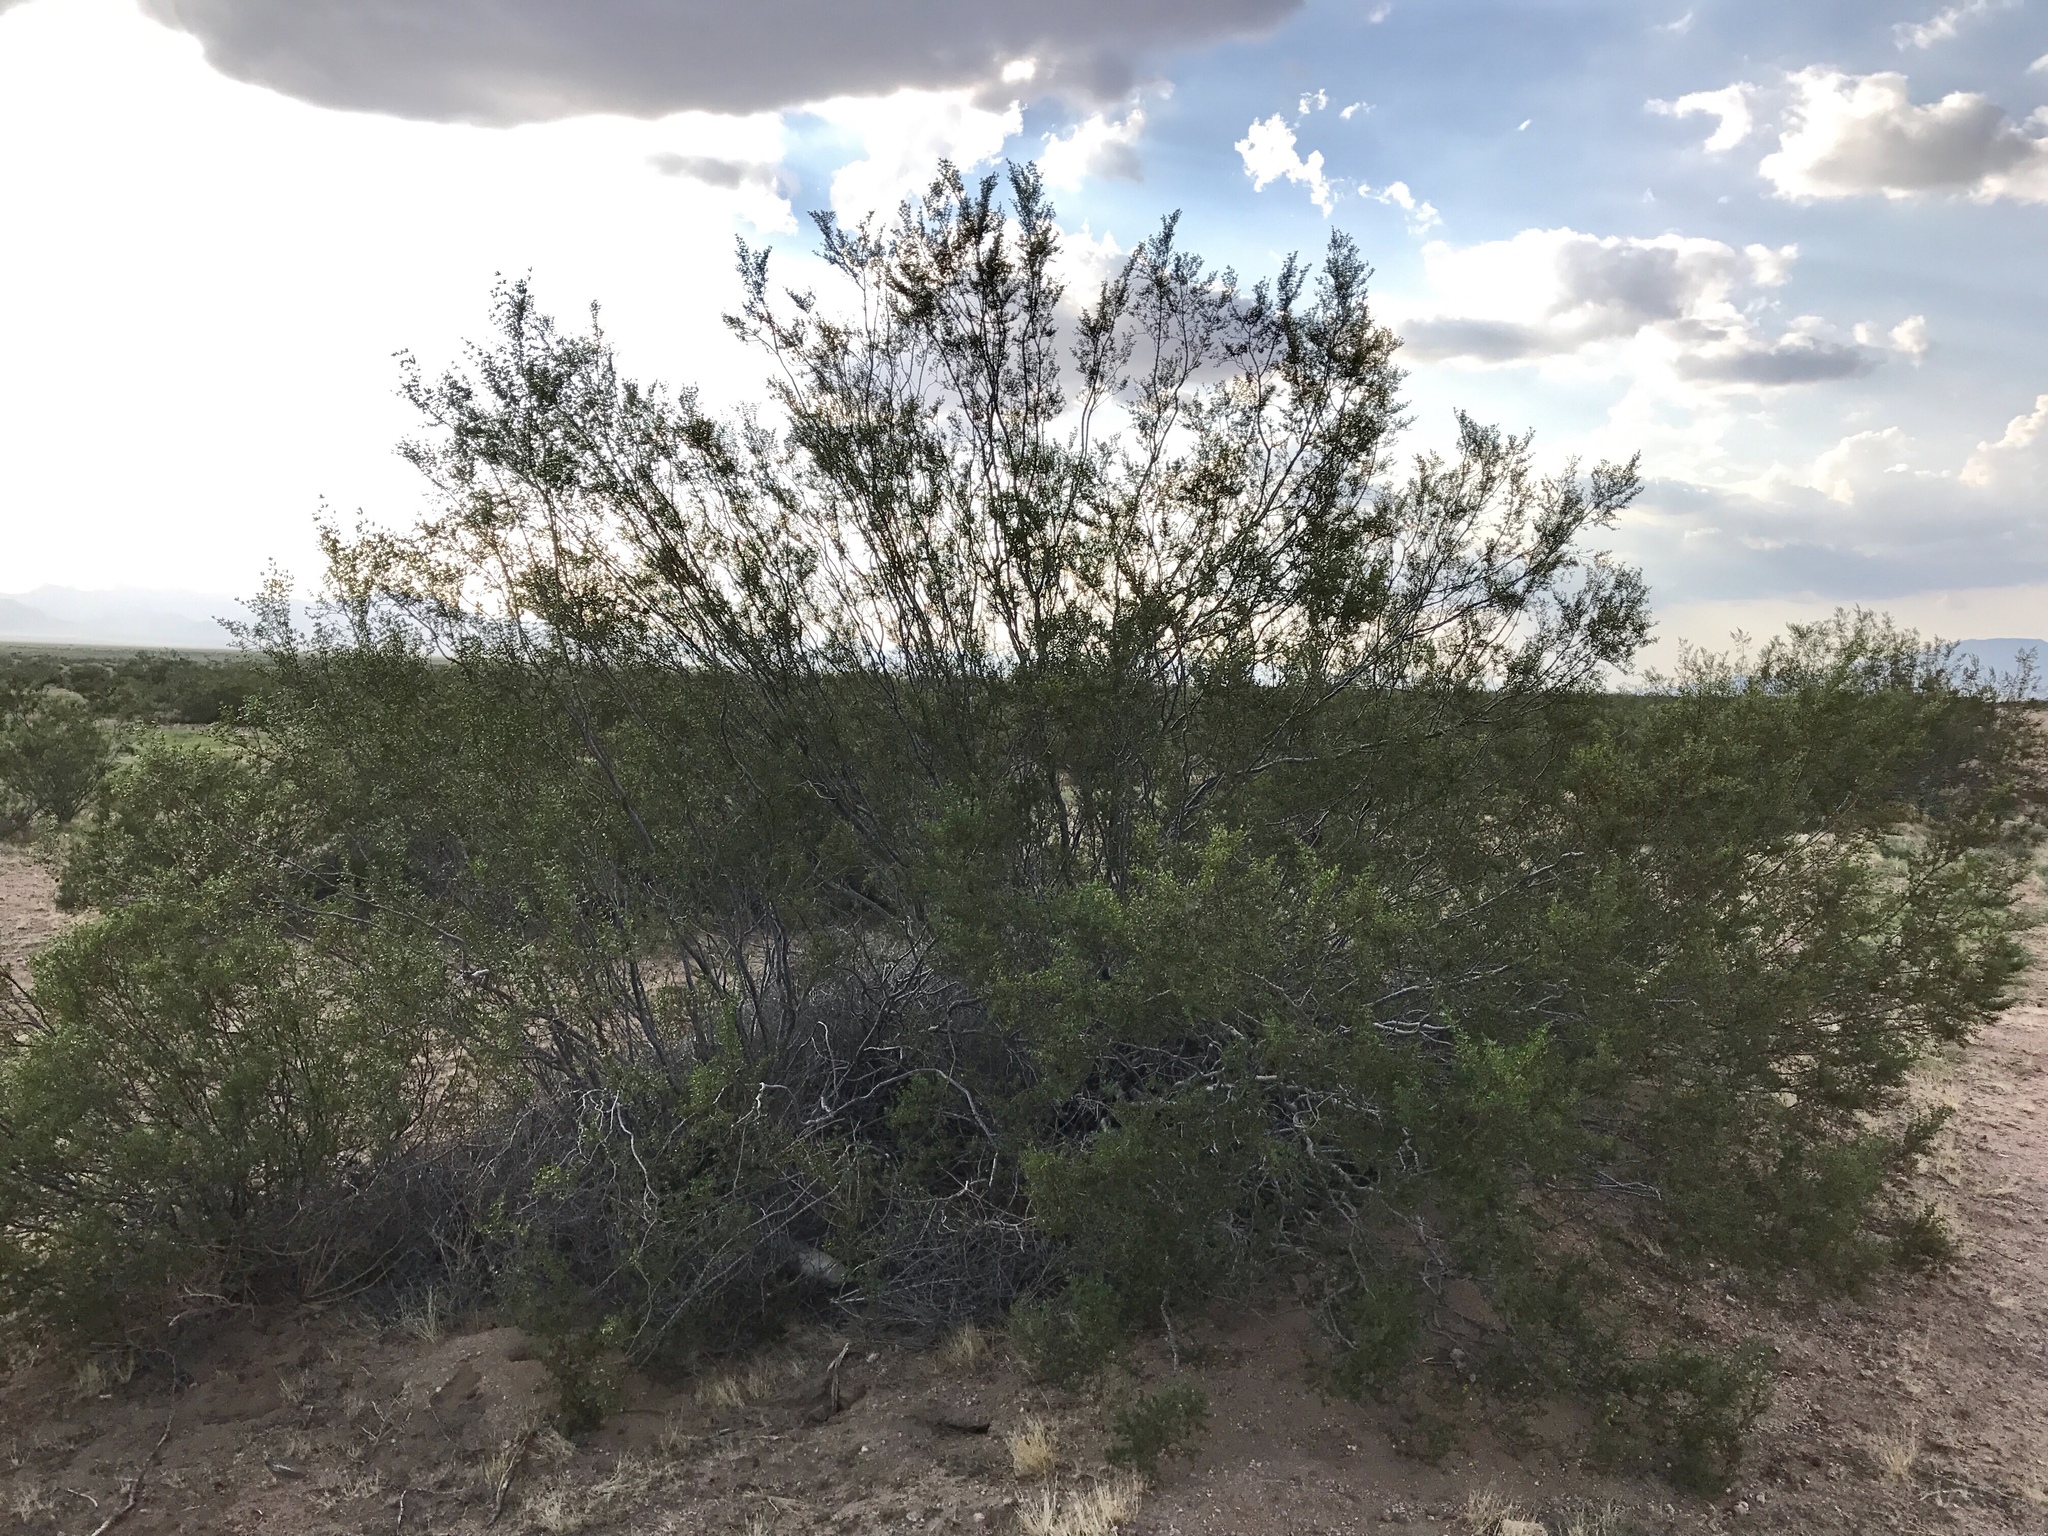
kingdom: Plantae
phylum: Tracheophyta
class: Magnoliopsida
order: Zygophyllales
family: Zygophyllaceae
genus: Larrea
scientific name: Larrea tridentata
